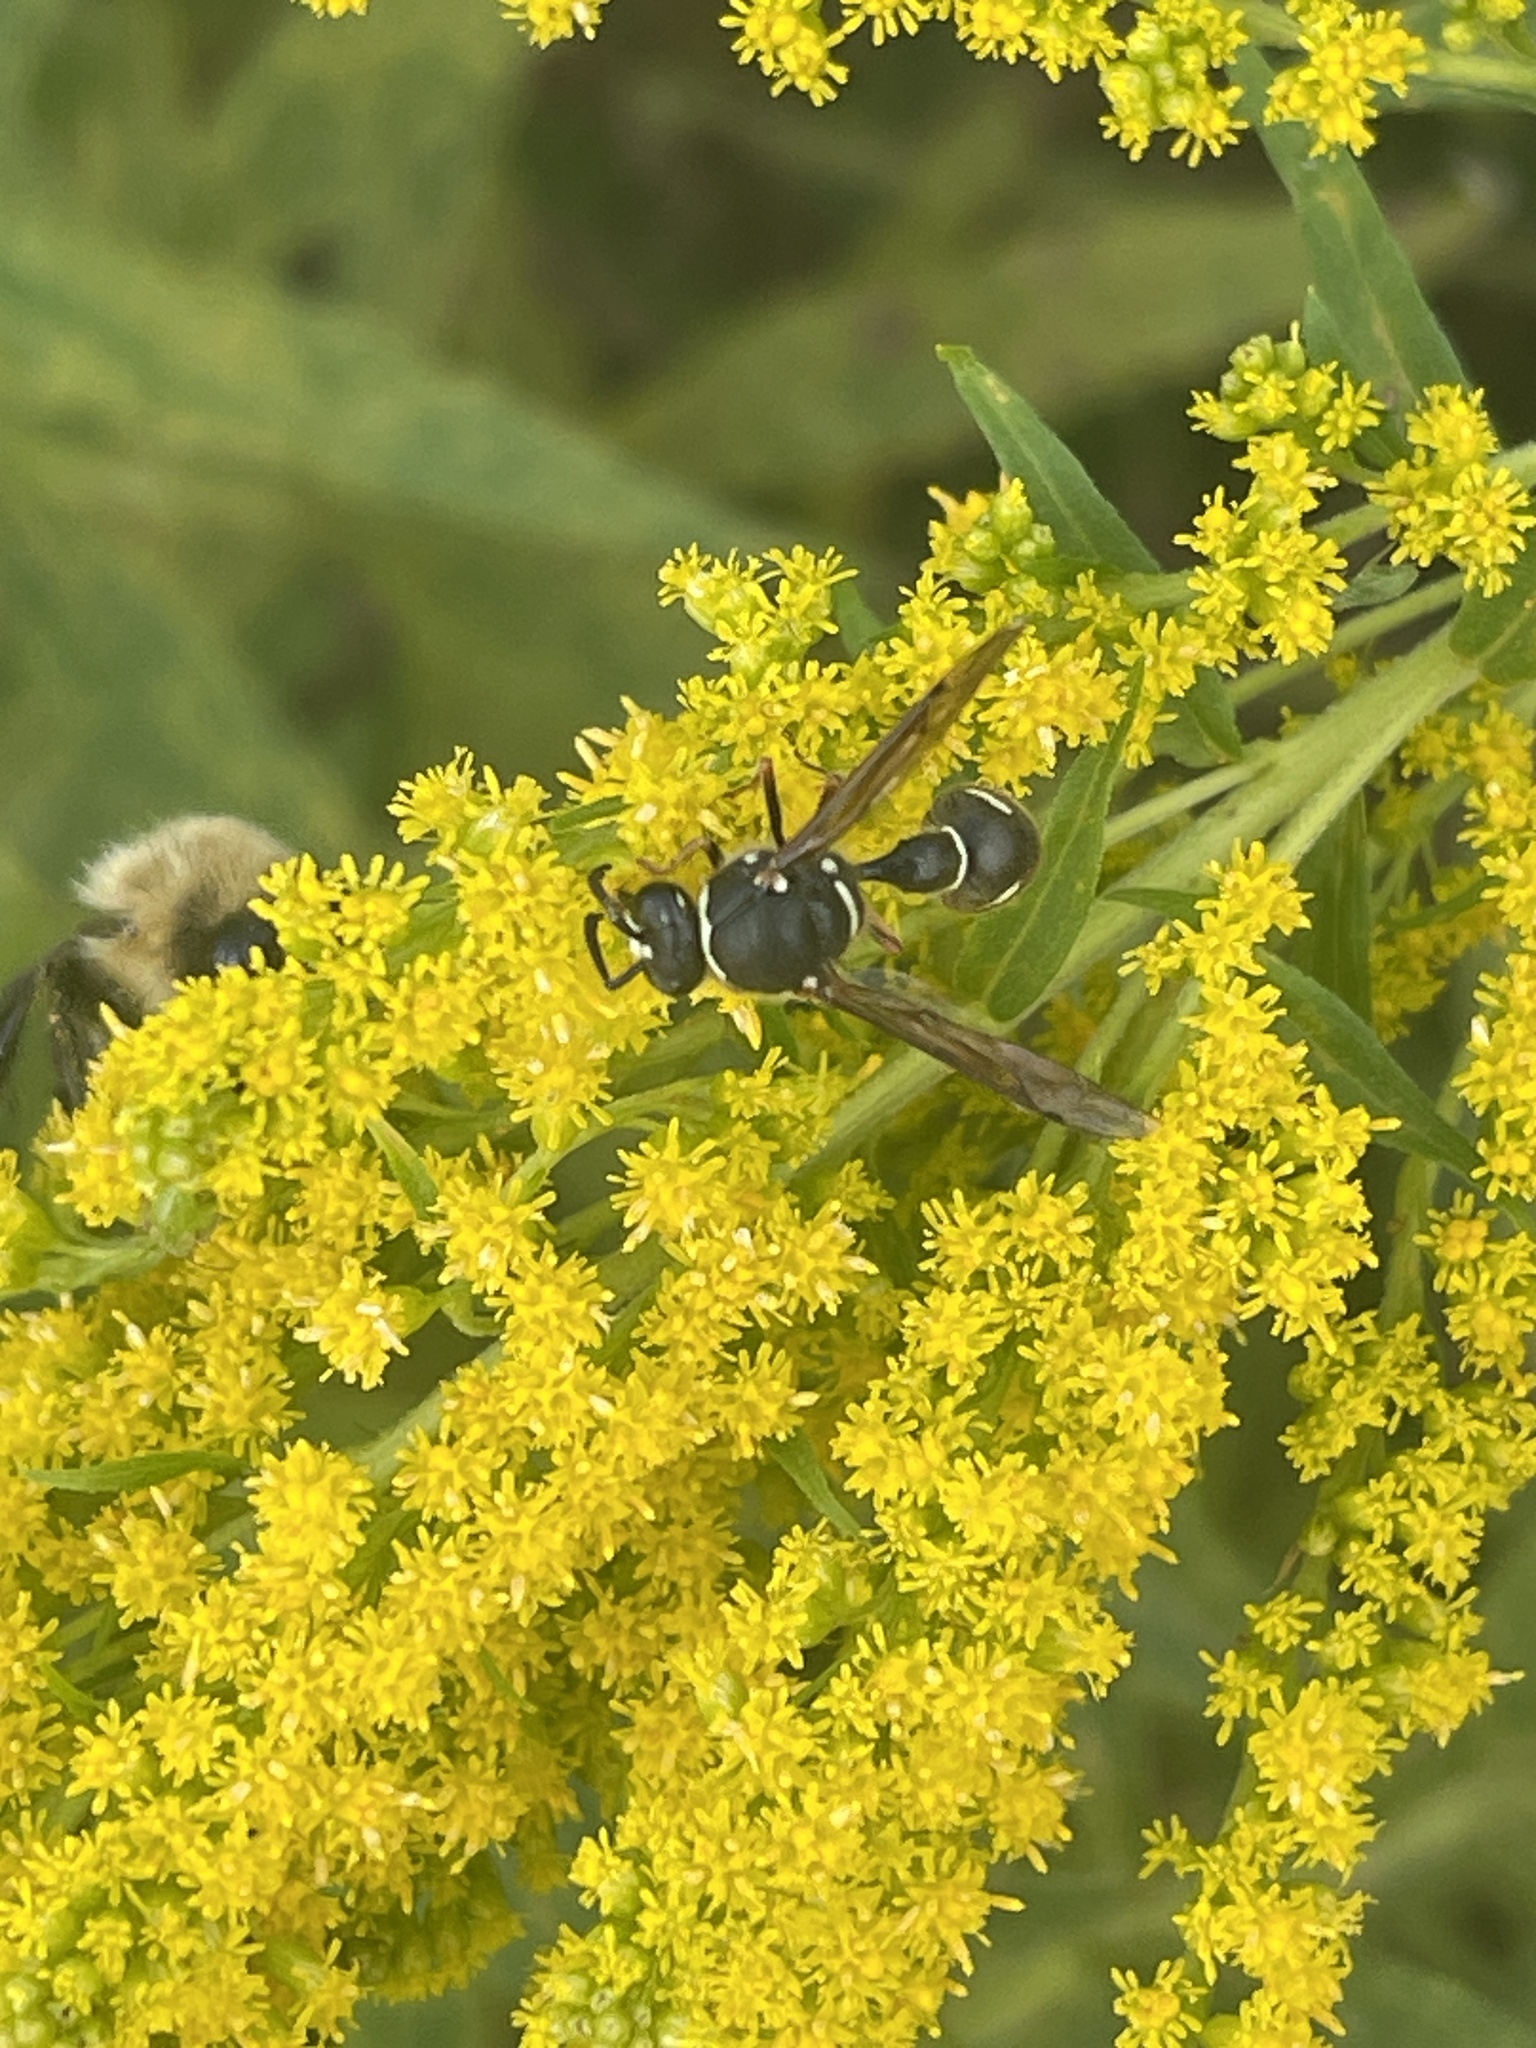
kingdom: Animalia
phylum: Arthropoda
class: Insecta
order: Hymenoptera
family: Vespidae
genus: Eumenes
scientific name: Eumenes fraternus
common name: Fraternal potter wasp
